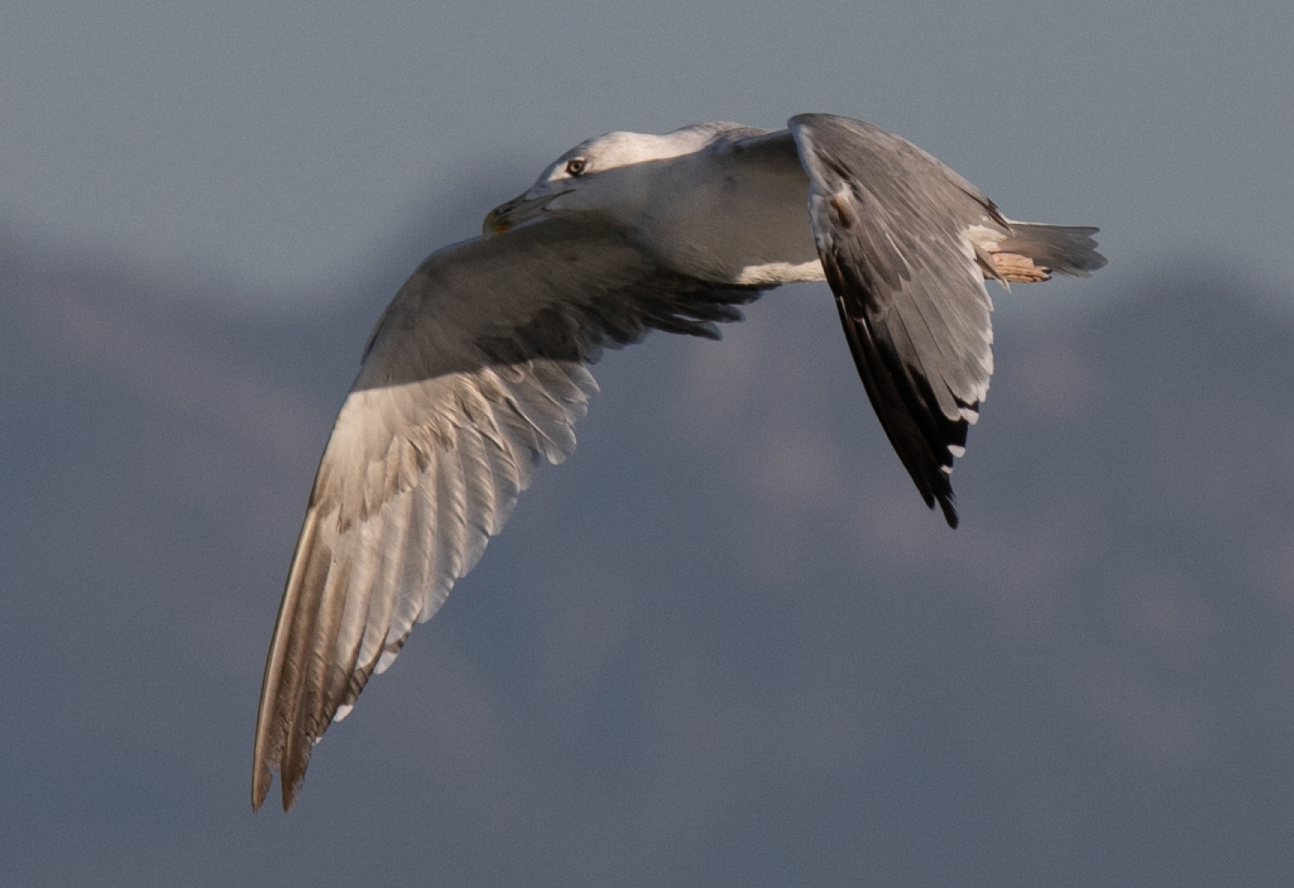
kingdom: Animalia
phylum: Chordata
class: Aves
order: Charadriiformes
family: Laridae
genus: Larus
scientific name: Larus michahellis
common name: Yellow-legged gull
